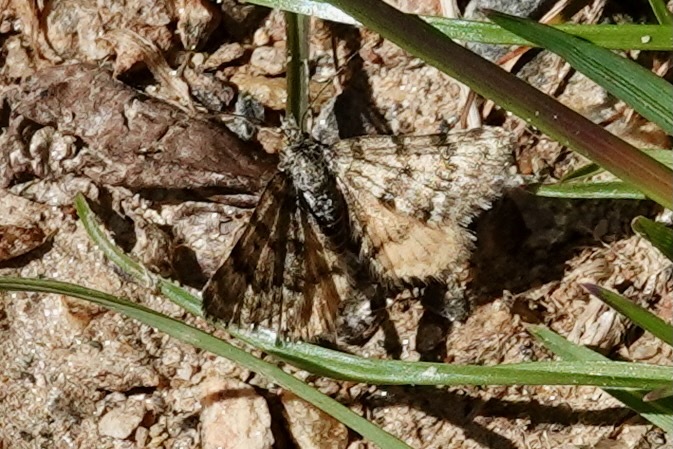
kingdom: Animalia
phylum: Arthropoda
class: Insecta
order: Lepidoptera
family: Geometridae
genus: Paranotoreas
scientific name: Paranotoreas fulva
